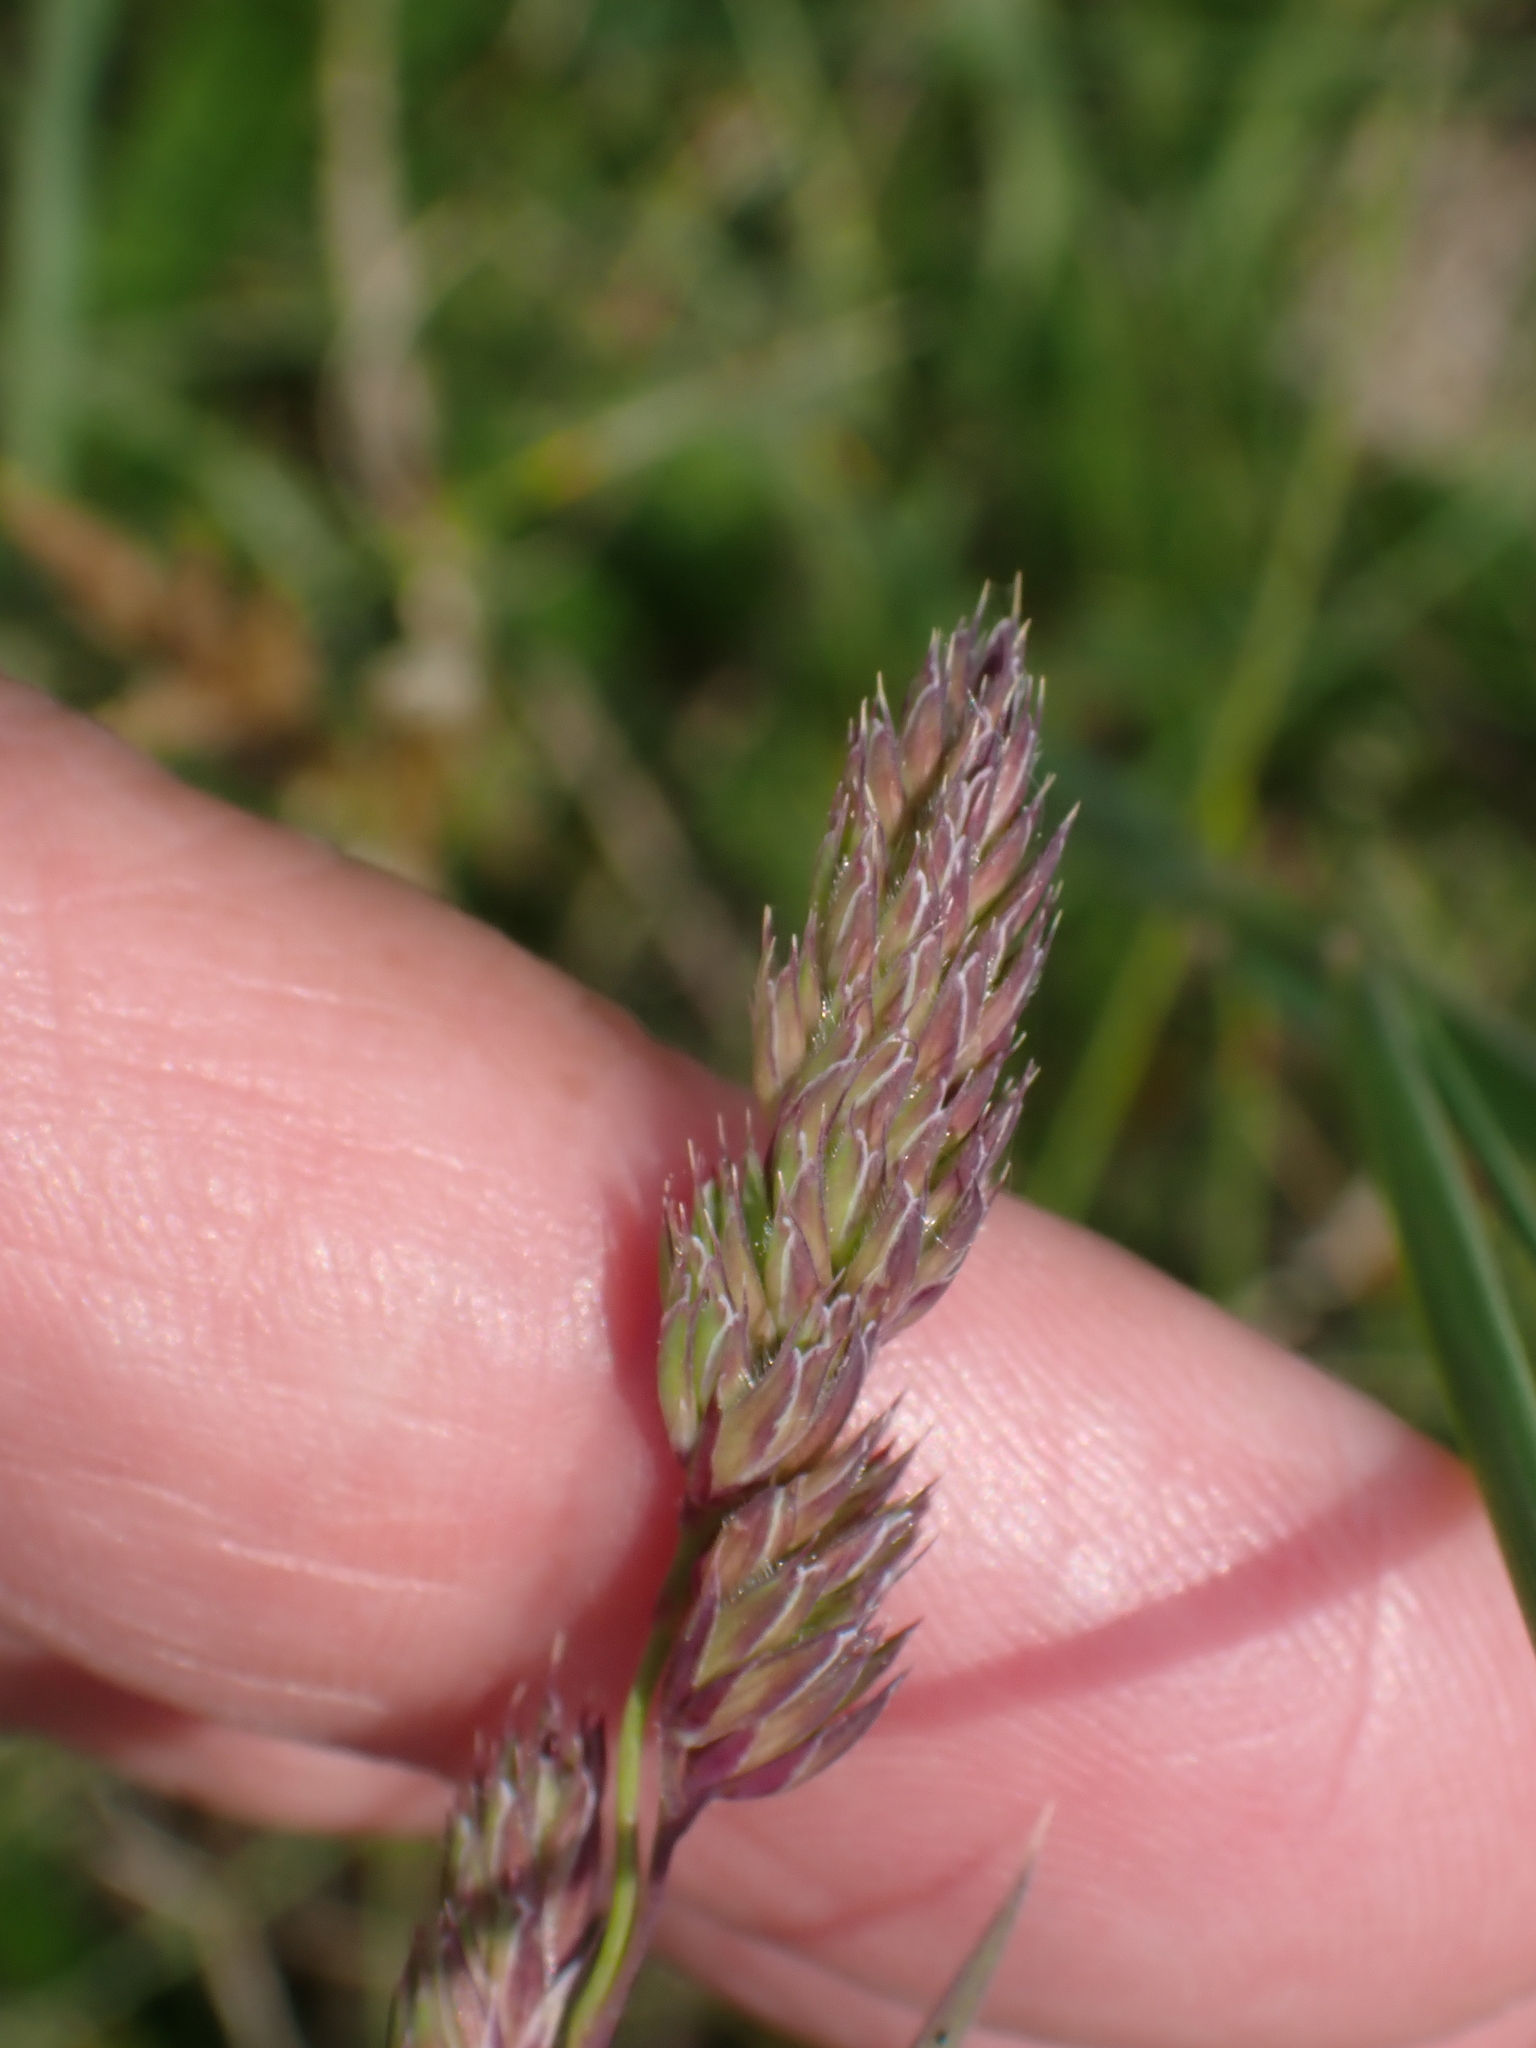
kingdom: Plantae
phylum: Tracheophyta
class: Liliopsida
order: Poales
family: Poaceae
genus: Dactylis
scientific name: Dactylis glomerata
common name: Orchardgrass
